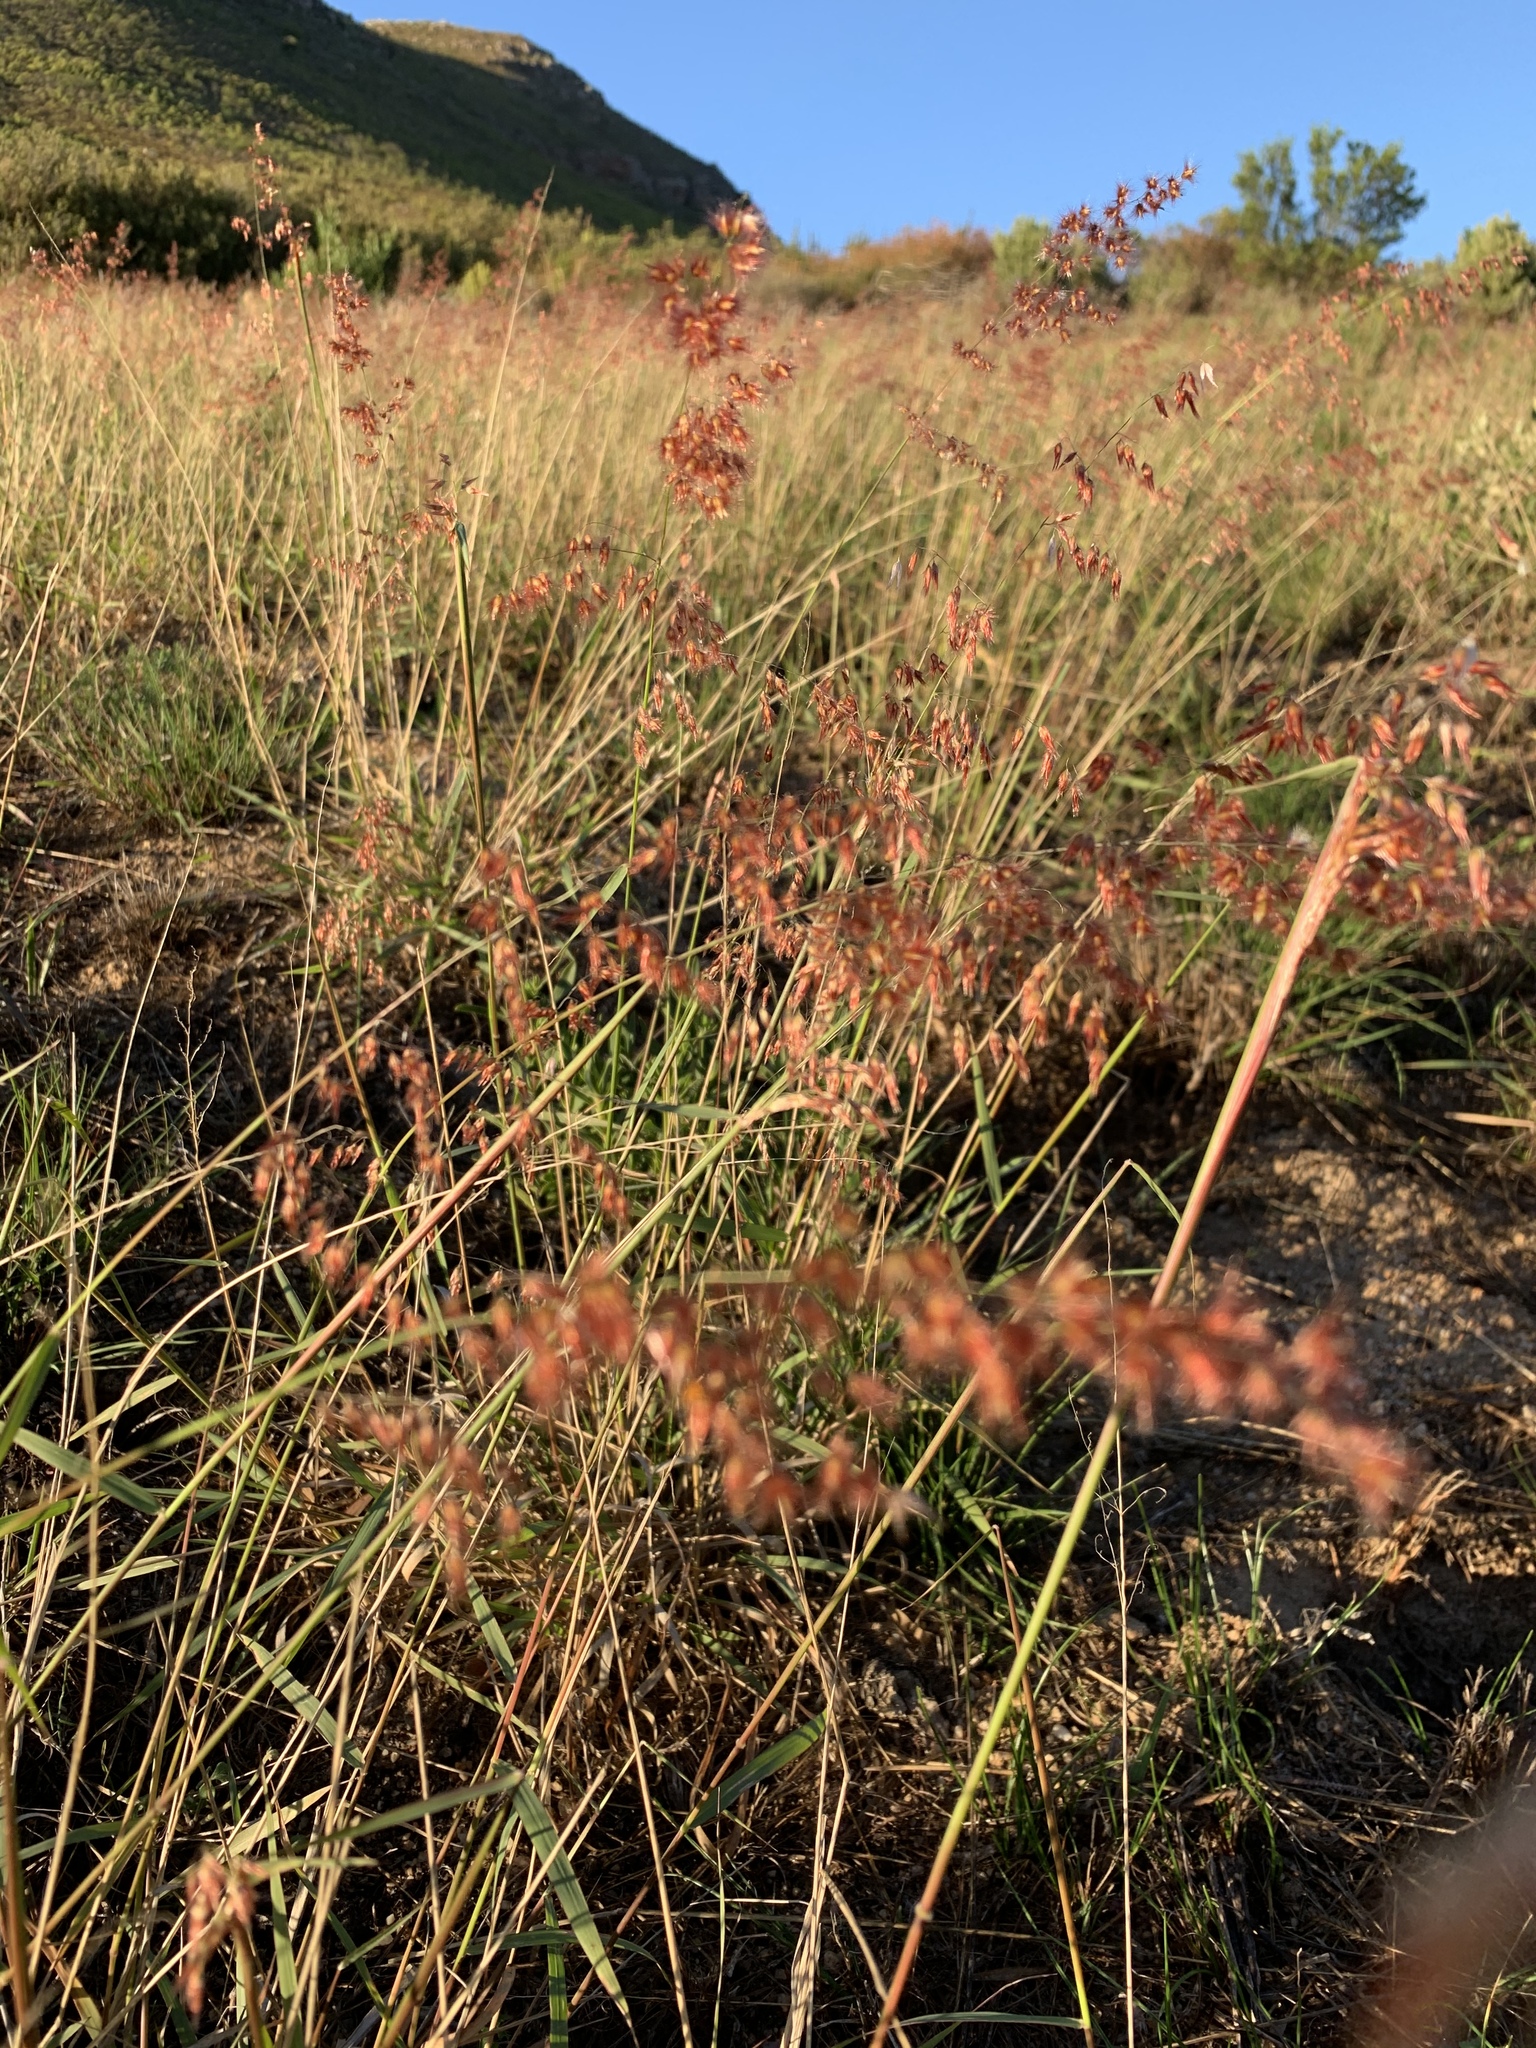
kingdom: Plantae
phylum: Tracheophyta
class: Liliopsida
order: Poales
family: Poaceae
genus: Melinis
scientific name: Melinis repens
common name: Rose natal grass
